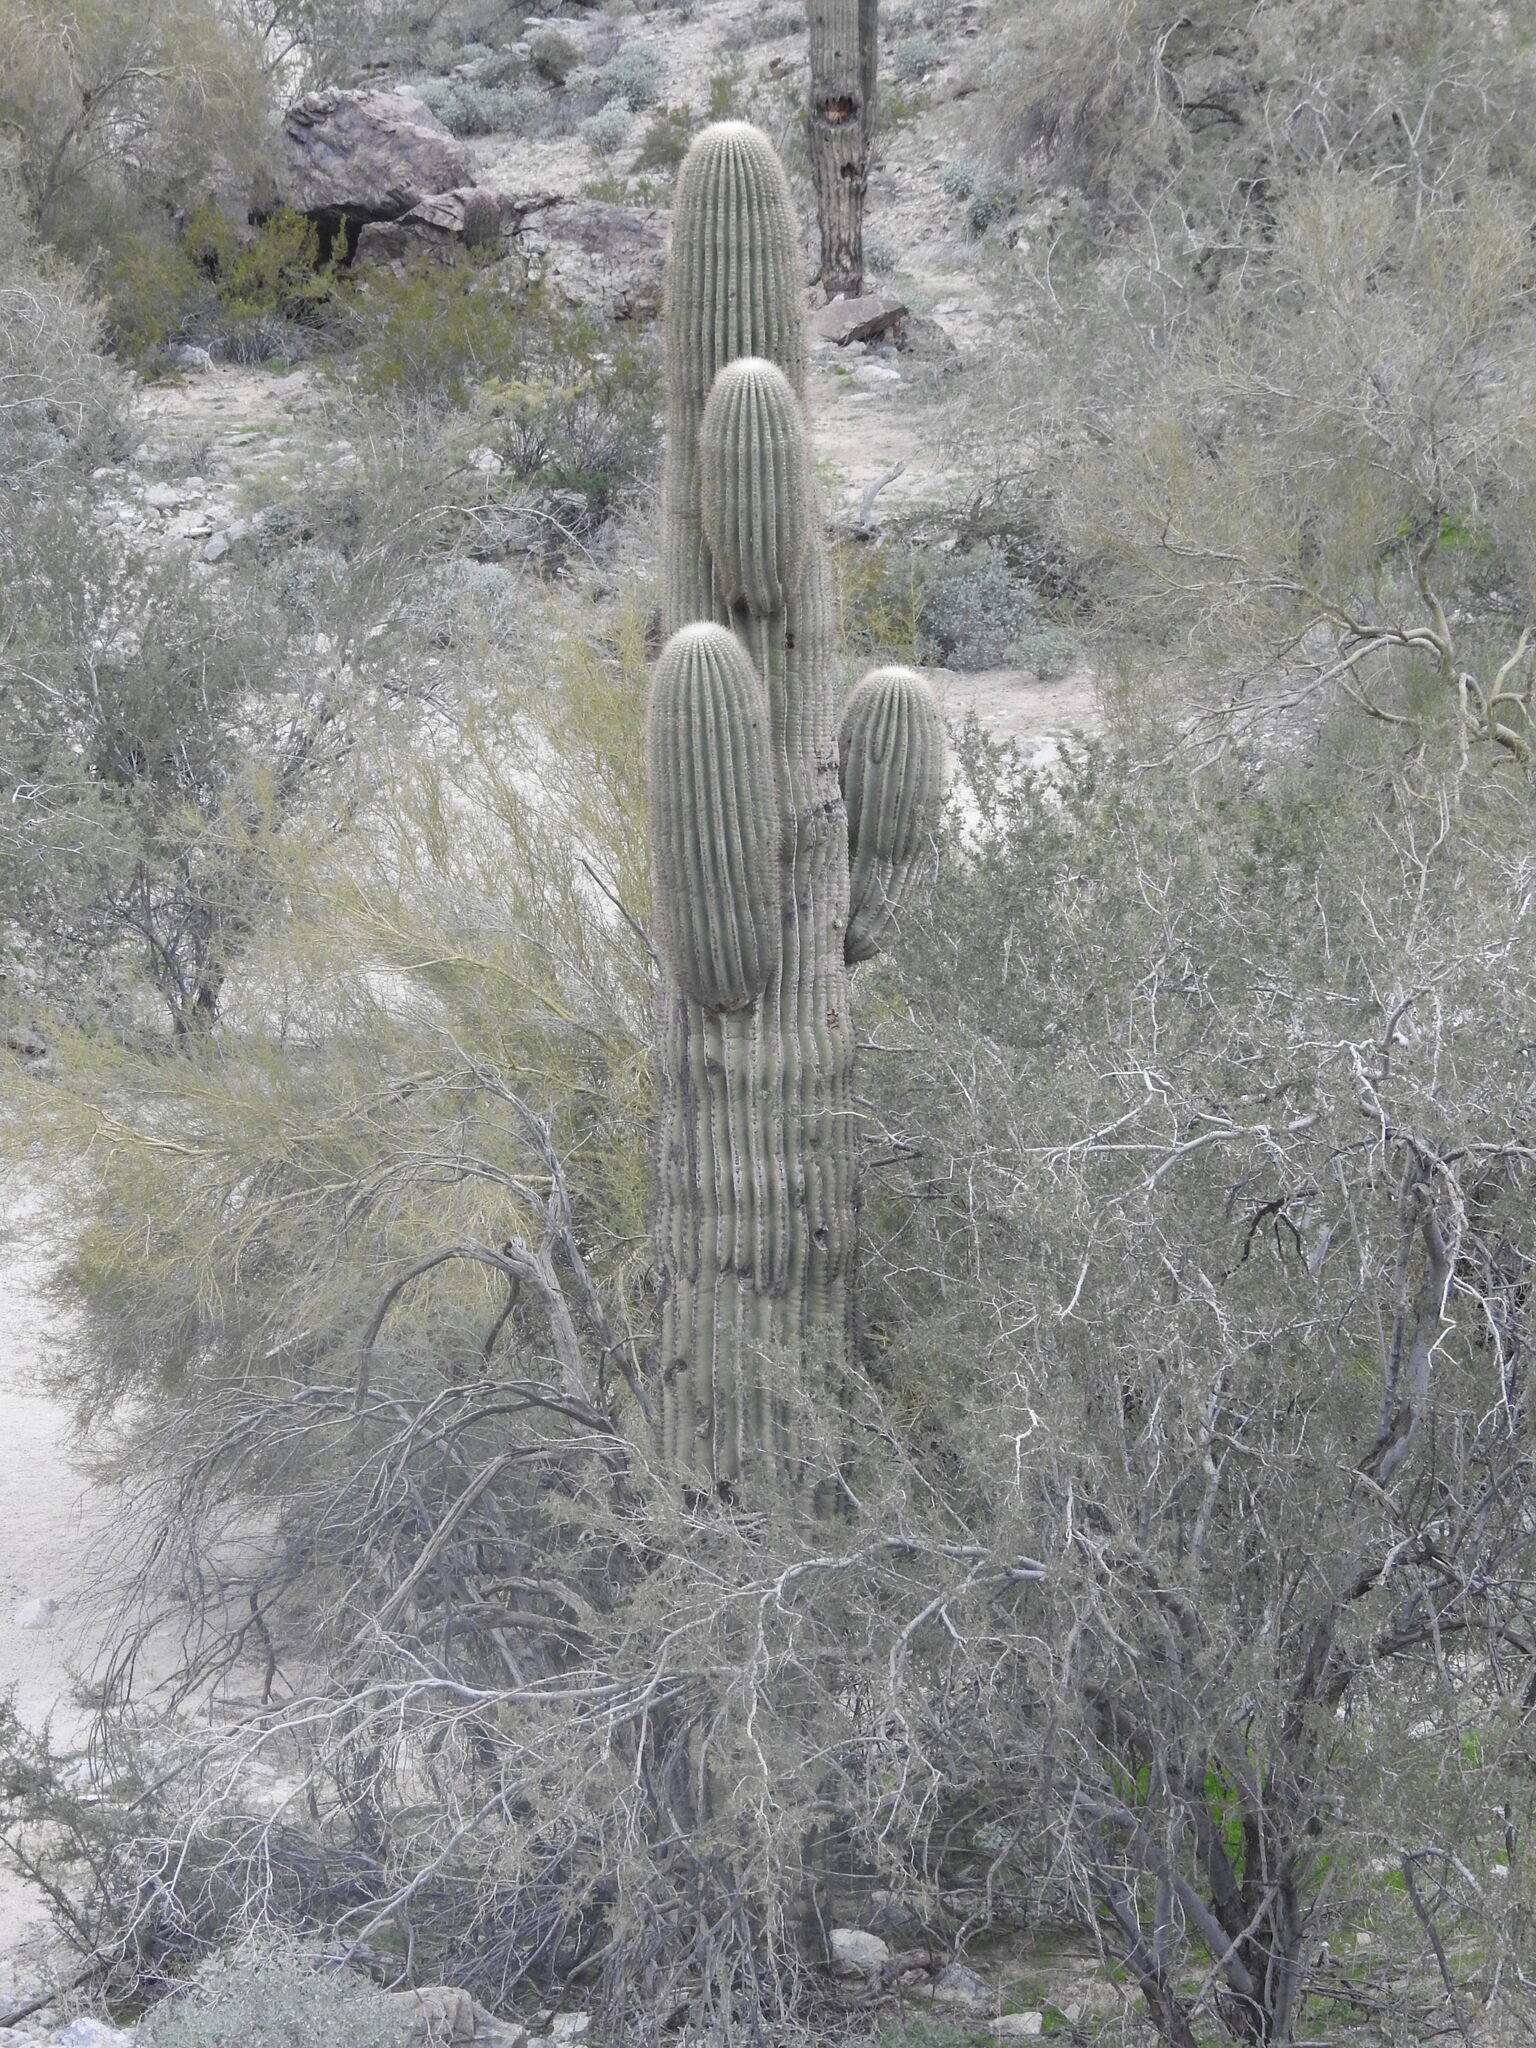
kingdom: Plantae
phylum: Tracheophyta
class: Magnoliopsida
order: Caryophyllales
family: Cactaceae
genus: Carnegiea
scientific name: Carnegiea gigantea
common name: Saguaro
